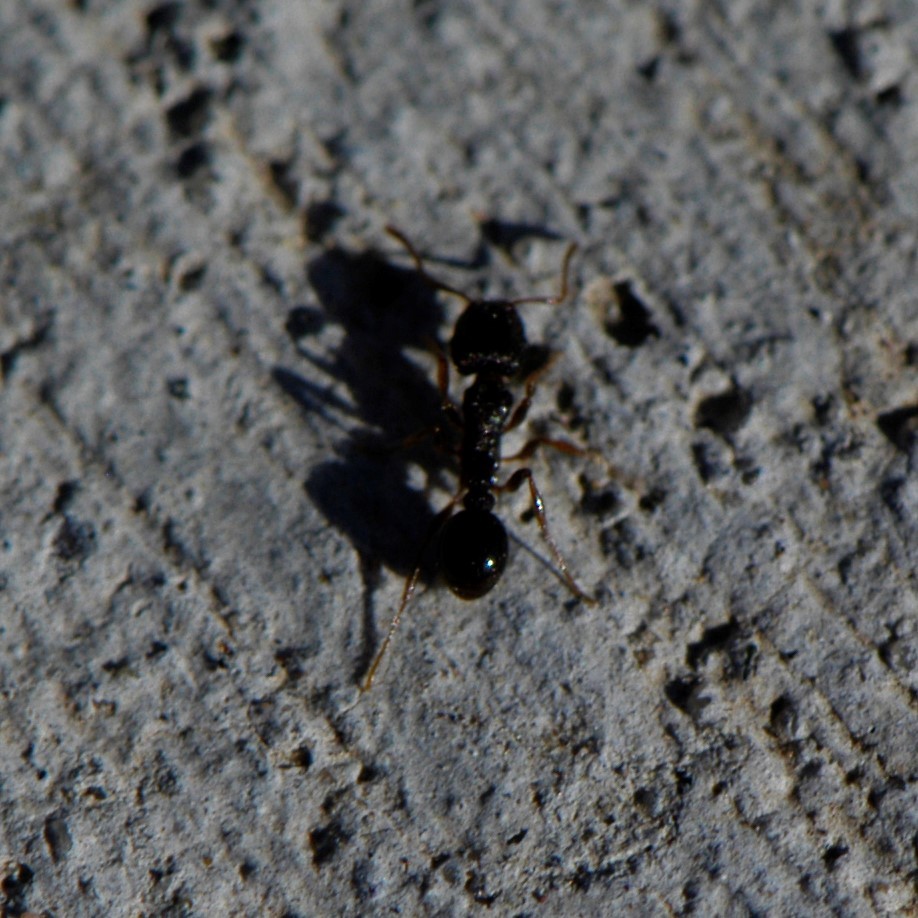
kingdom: Animalia
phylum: Arthropoda
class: Insecta
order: Hymenoptera
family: Formicidae
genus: Tetramorium
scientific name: Tetramorium immigrans
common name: Pavement ant
